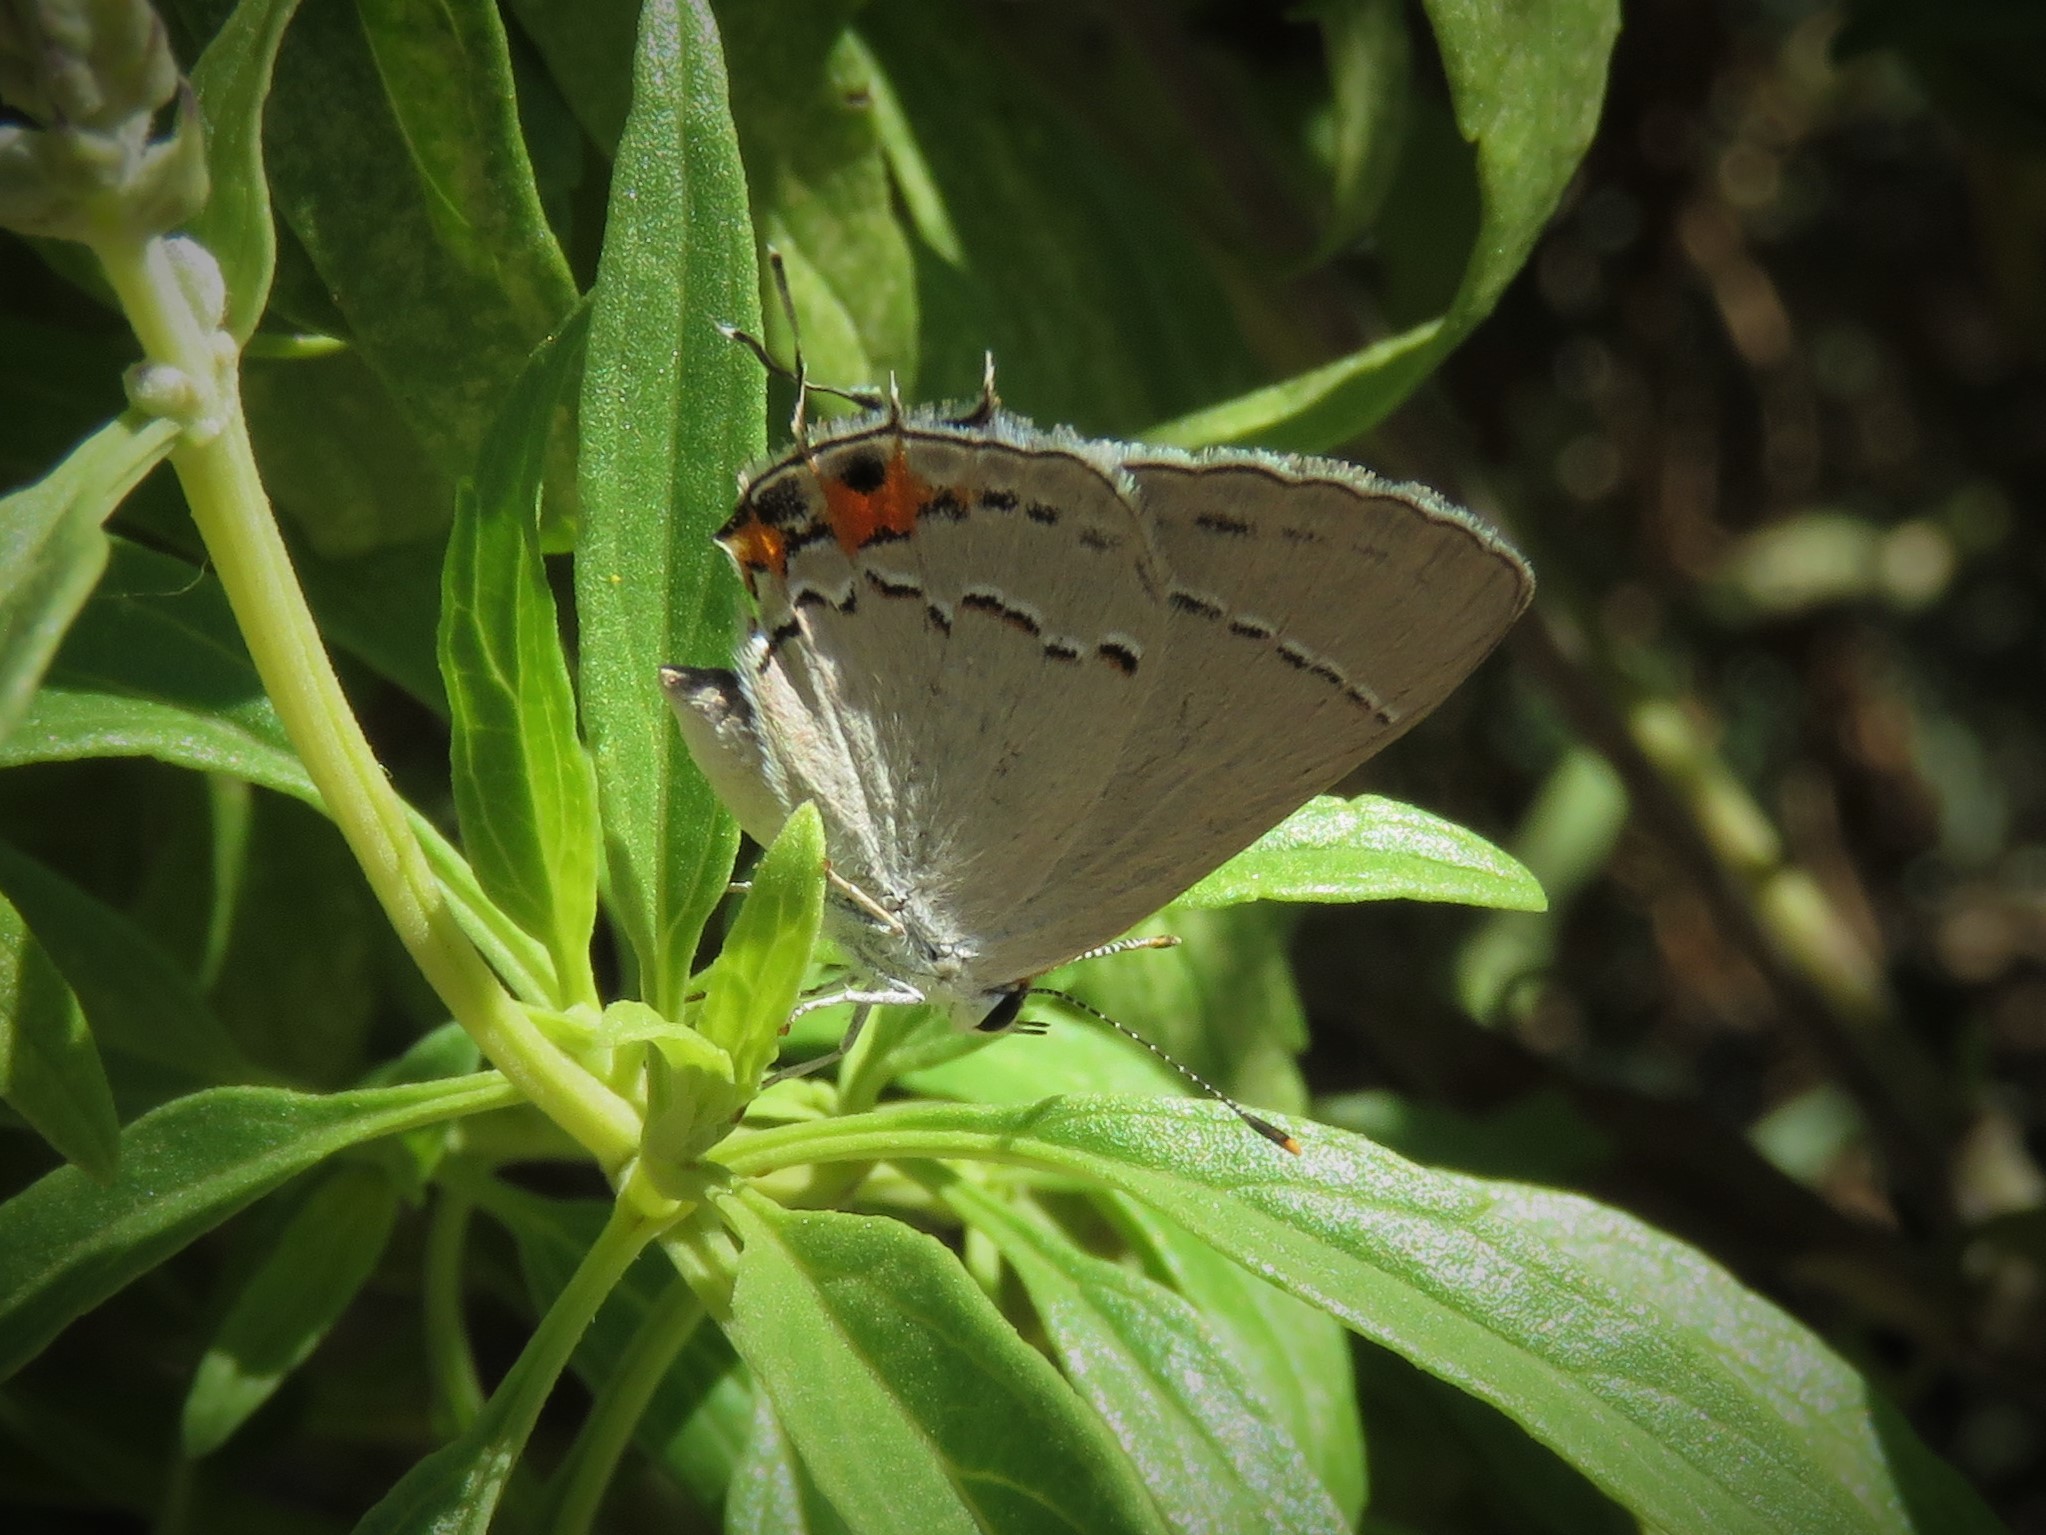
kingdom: Animalia
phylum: Arthropoda
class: Insecta
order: Lepidoptera
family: Lycaenidae
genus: Strymon
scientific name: Strymon melinus
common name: Gray hairstreak
